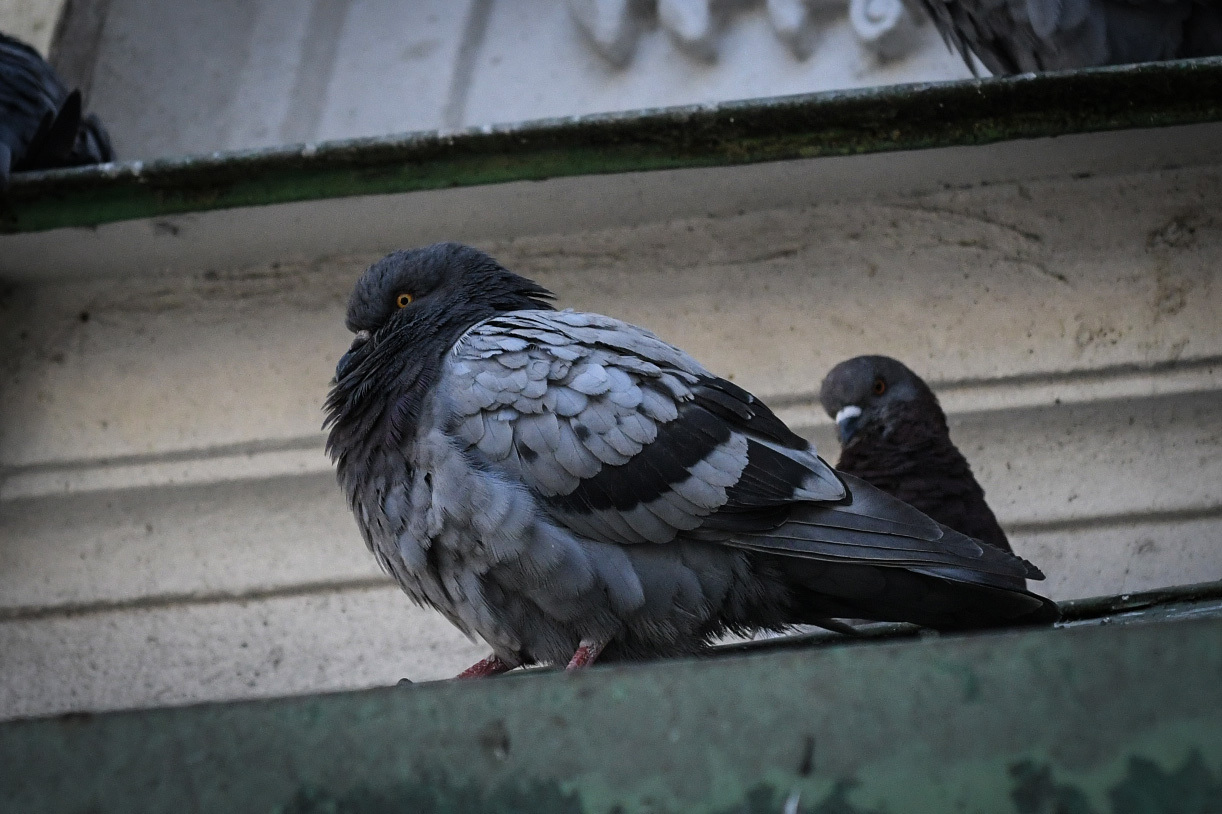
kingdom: Animalia
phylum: Chordata
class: Aves
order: Columbiformes
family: Columbidae
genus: Columba
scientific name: Columba livia
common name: Rock pigeon
